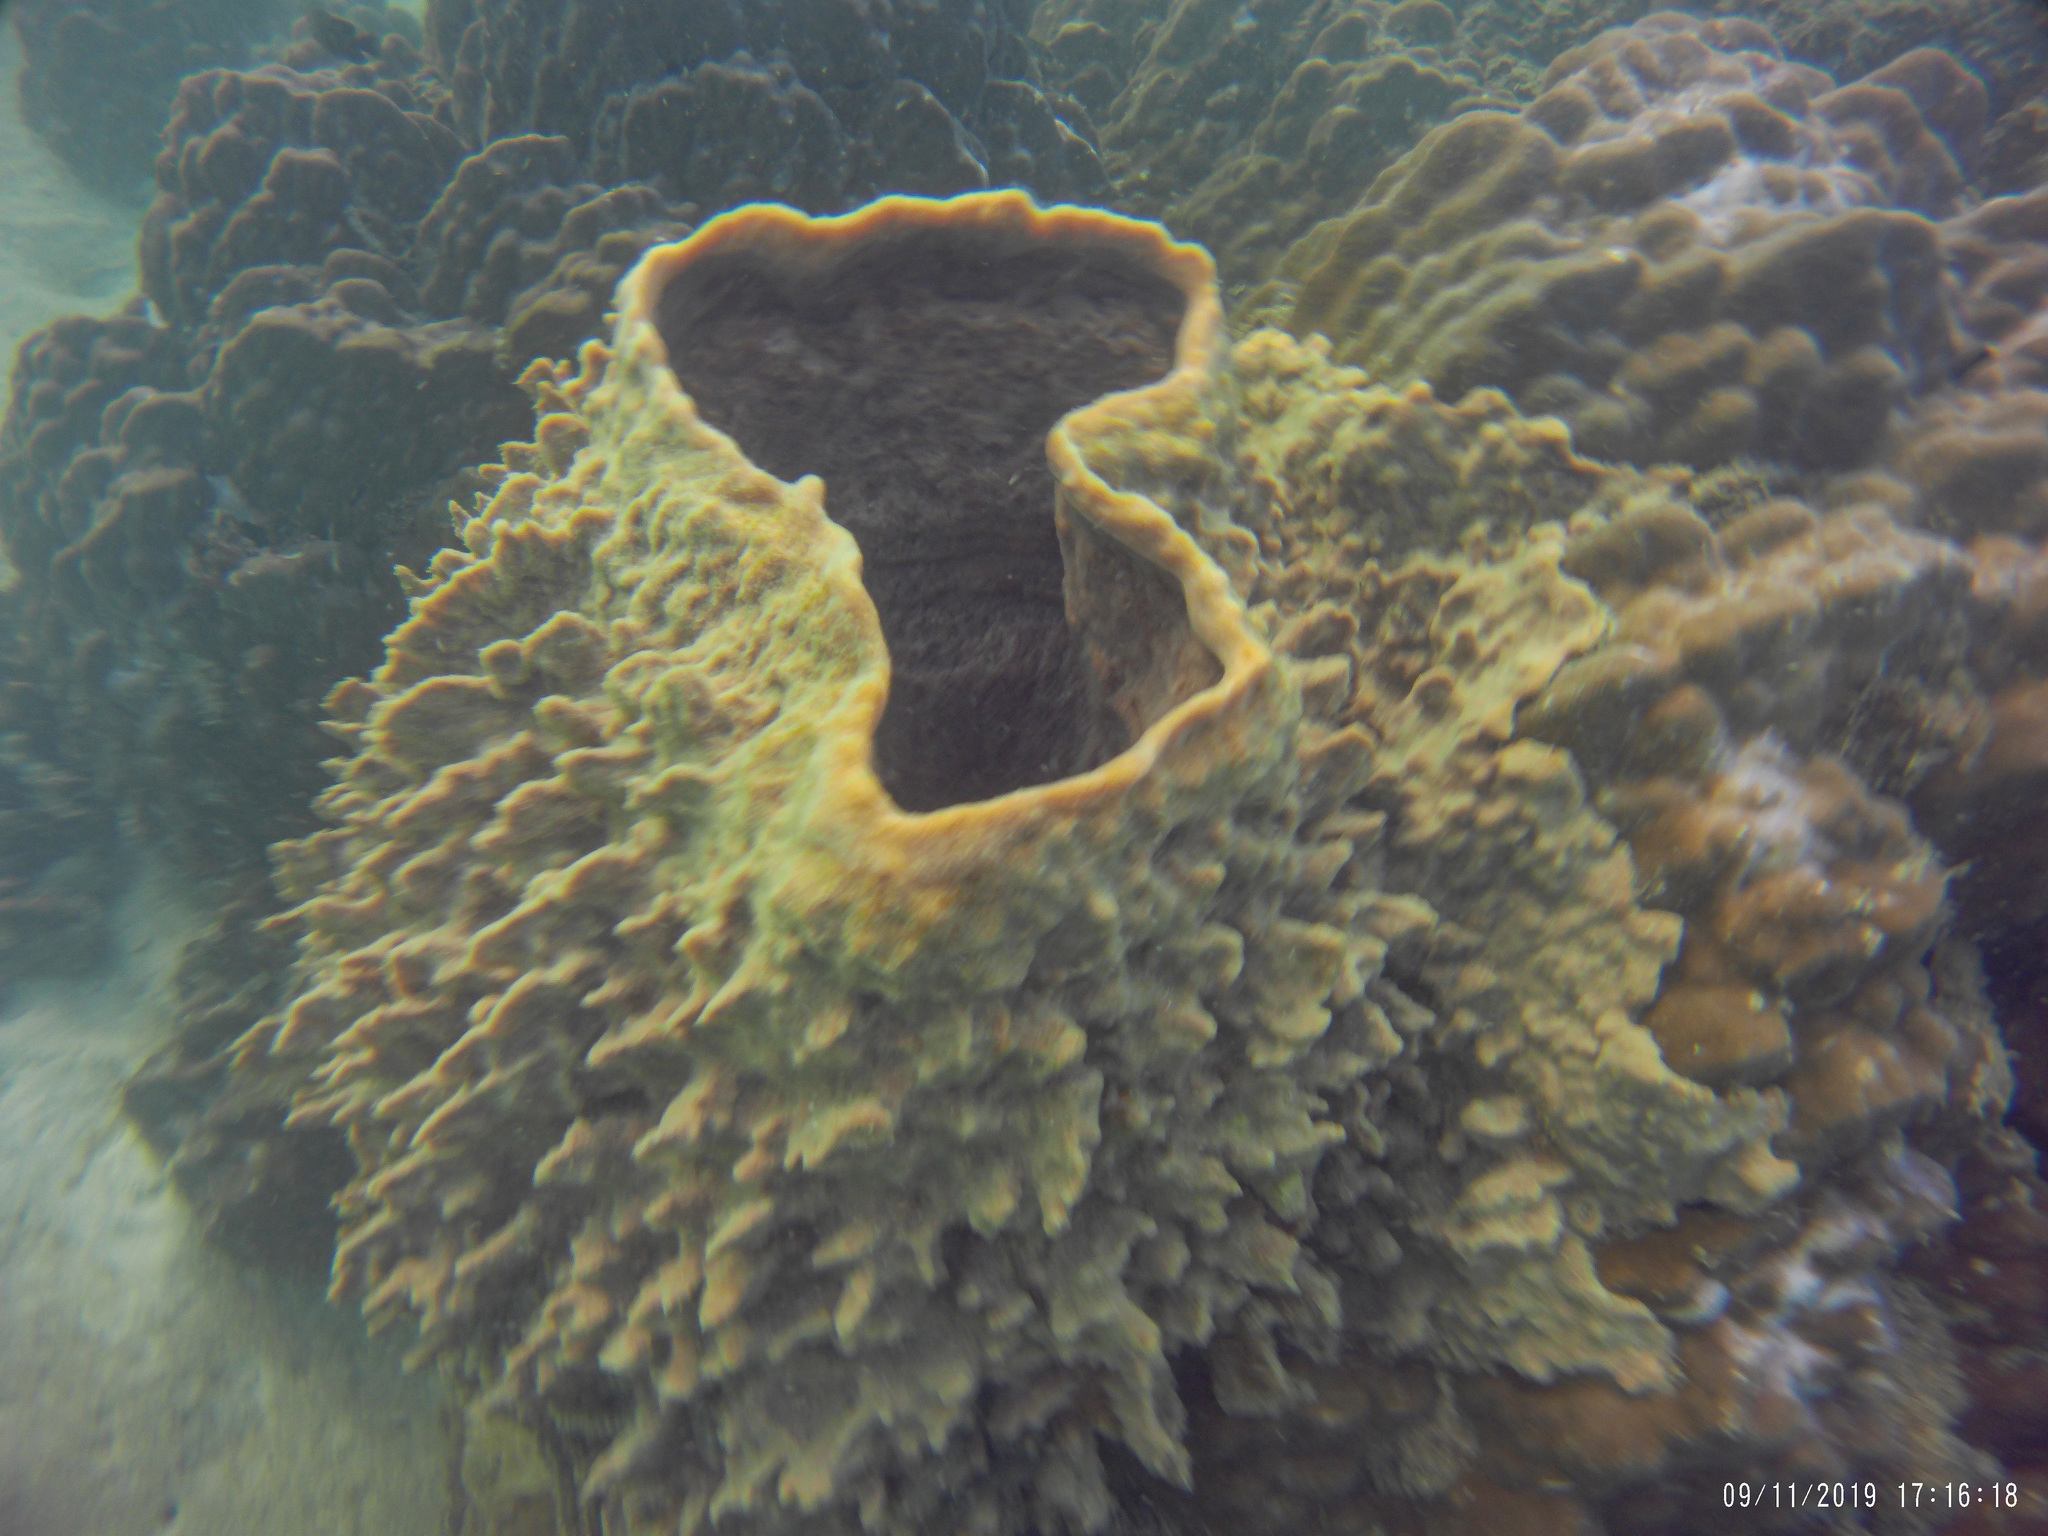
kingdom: Animalia
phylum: Porifera
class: Demospongiae
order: Haplosclerida
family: Petrosiidae
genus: Xestospongia
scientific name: Xestospongia testudinaria
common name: Barrel sponge
